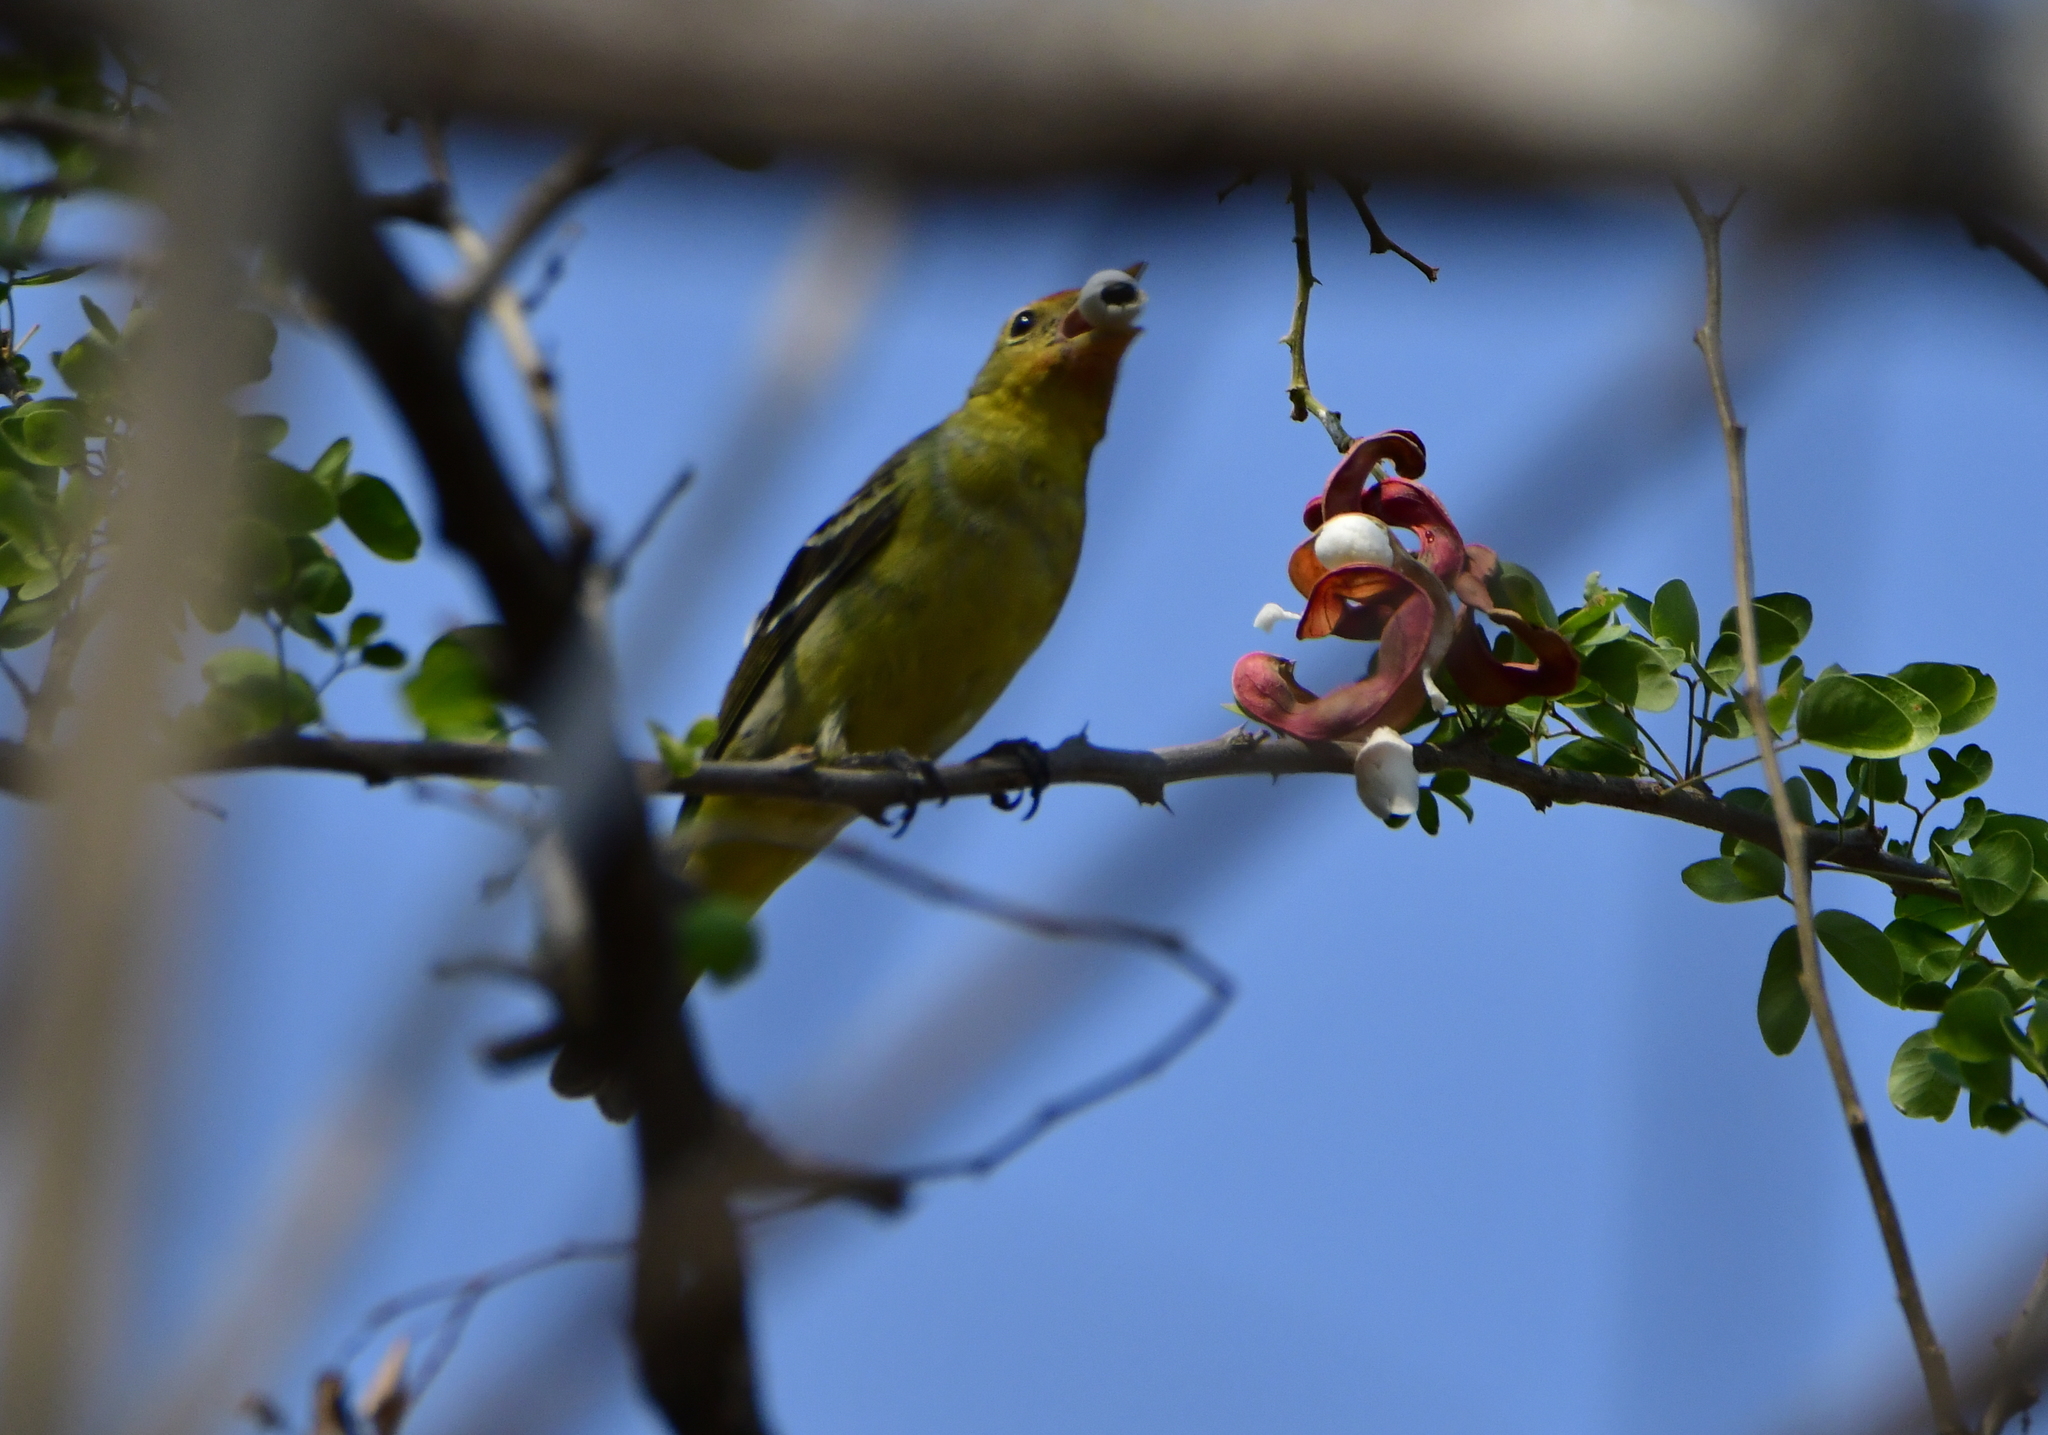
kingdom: Animalia
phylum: Chordata
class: Aves
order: Passeriformes
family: Cardinalidae
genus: Piranga
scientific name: Piranga ludoviciana
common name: Western tanager
